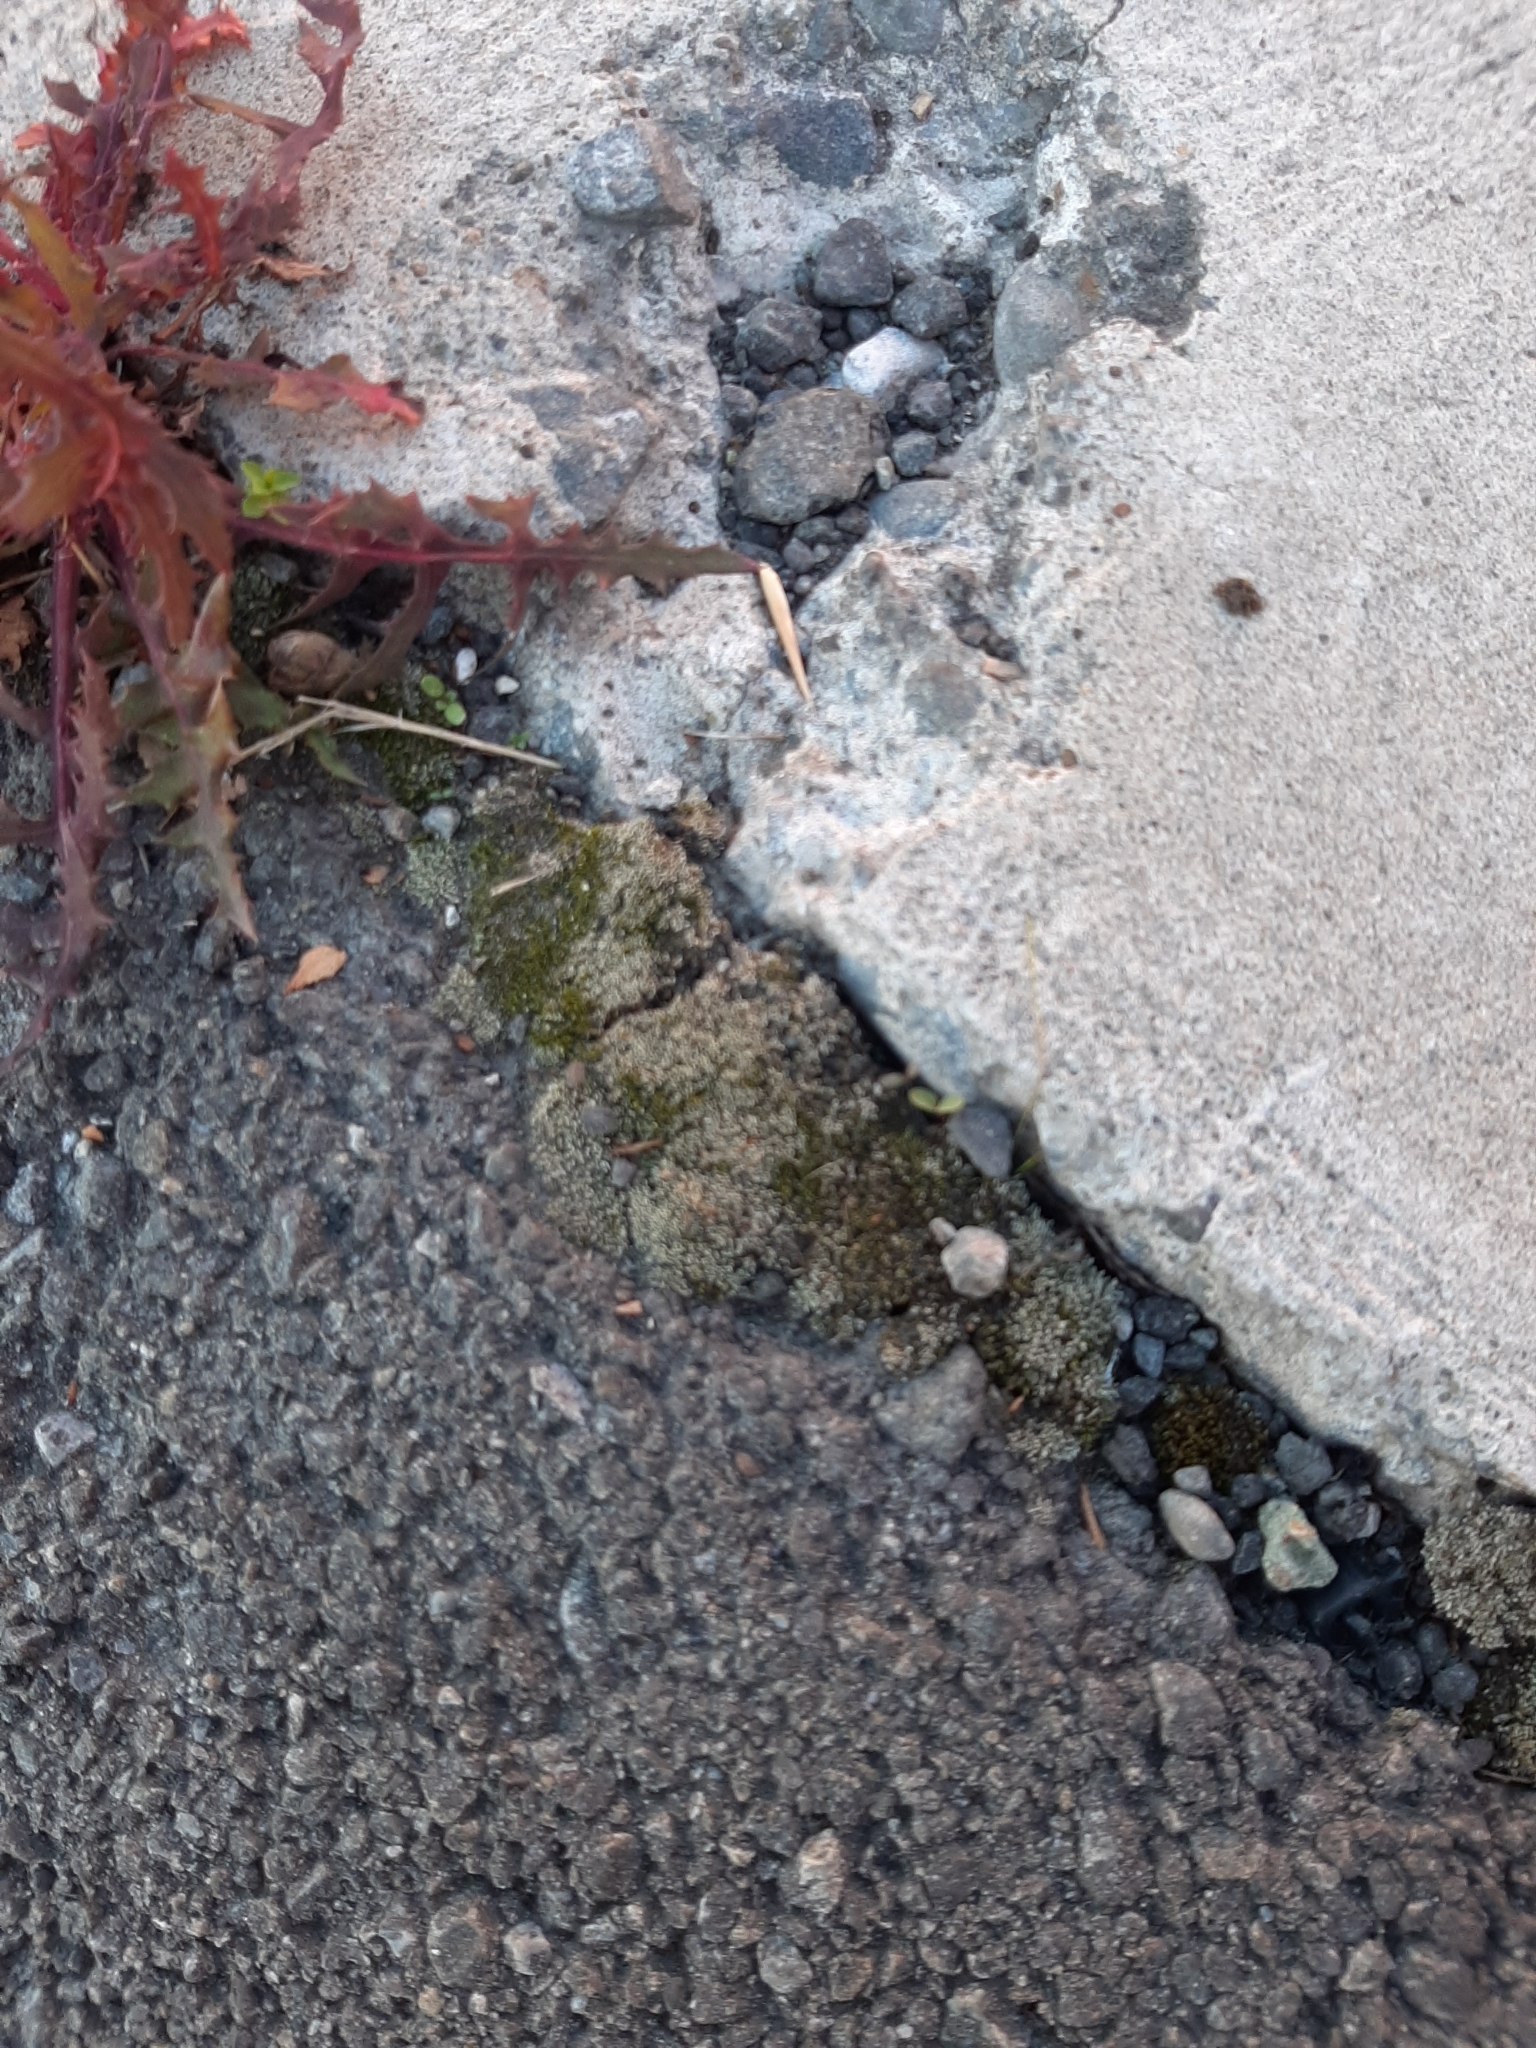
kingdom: Plantae
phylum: Bryophyta
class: Bryopsida
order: Bryales
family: Bryaceae
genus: Bryum
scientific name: Bryum argenteum
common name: Silver-moss
